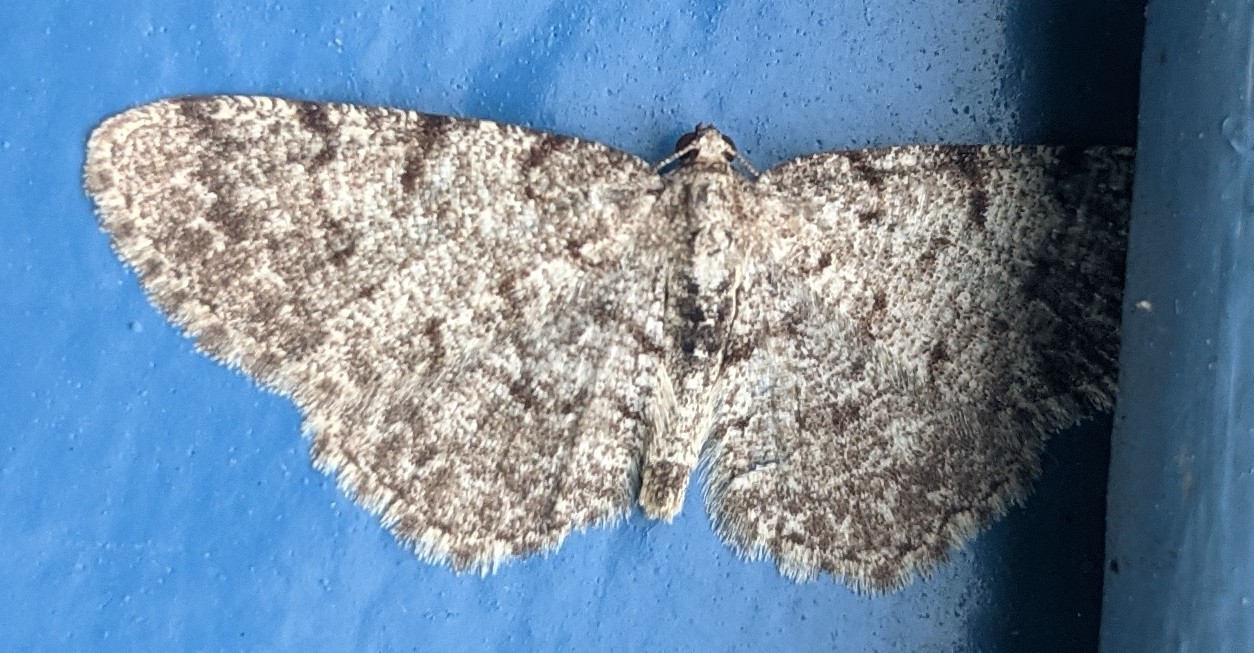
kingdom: Animalia
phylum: Arthropoda
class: Insecta
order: Lepidoptera
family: Geometridae
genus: Aethalura
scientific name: Aethalura intertexta
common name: Four-barred gray
